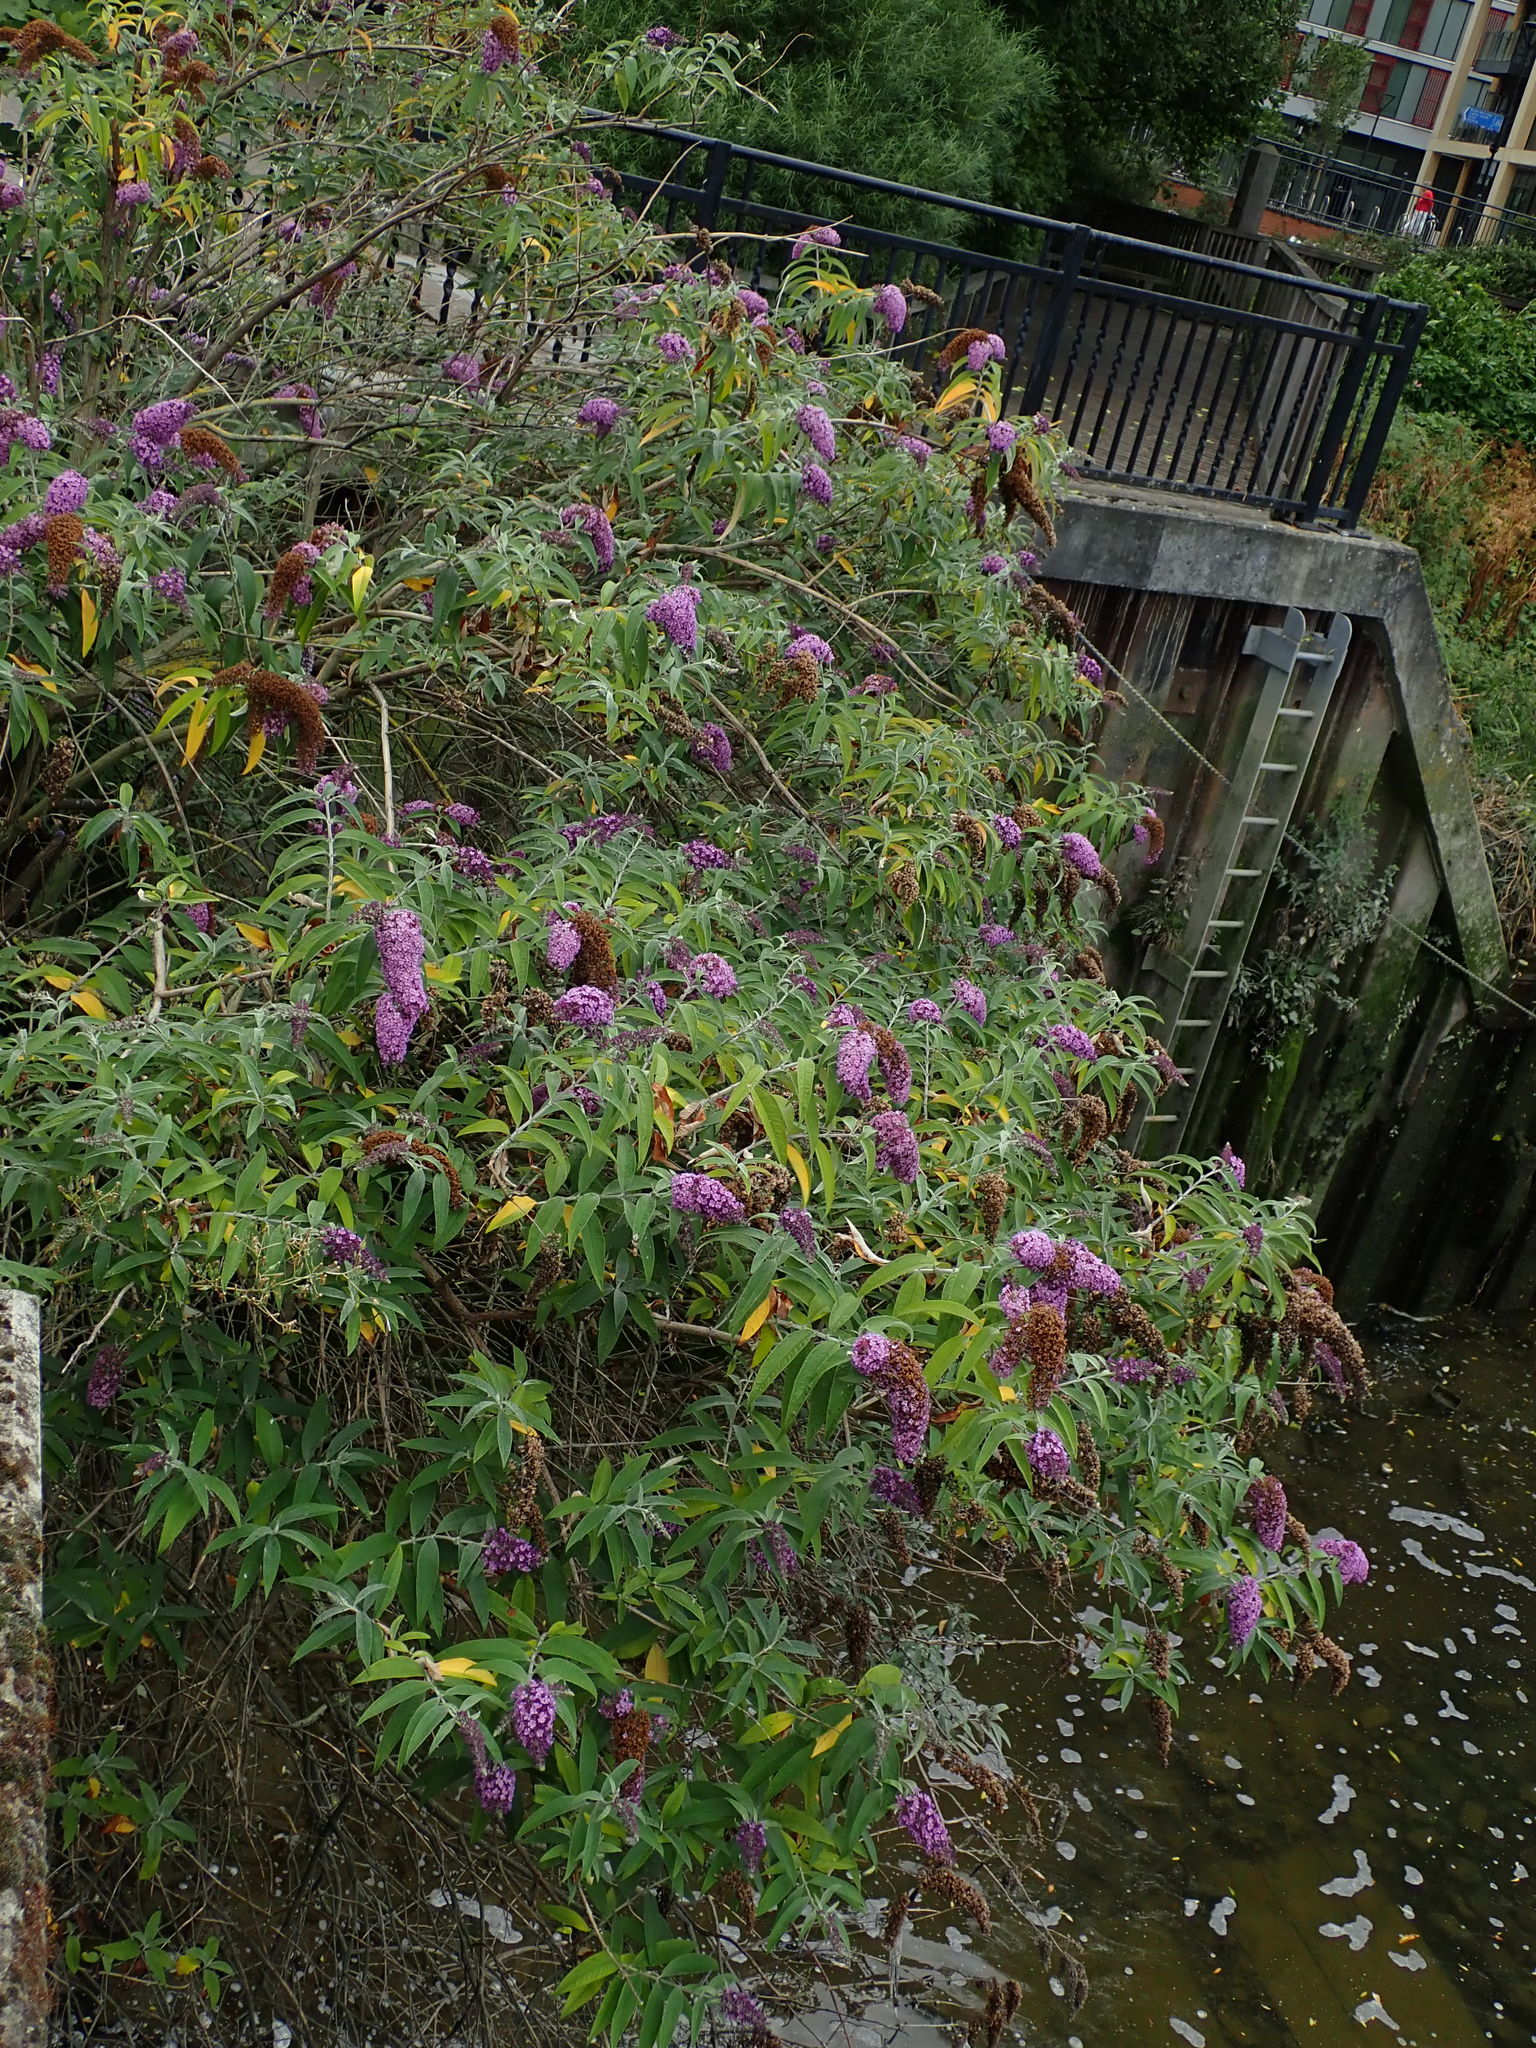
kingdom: Plantae
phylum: Tracheophyta
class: Magnoliopsida
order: Lamiales
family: Scrophulariaceae
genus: Buddleja
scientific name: Buddleja davidii
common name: Butterfly-bush
